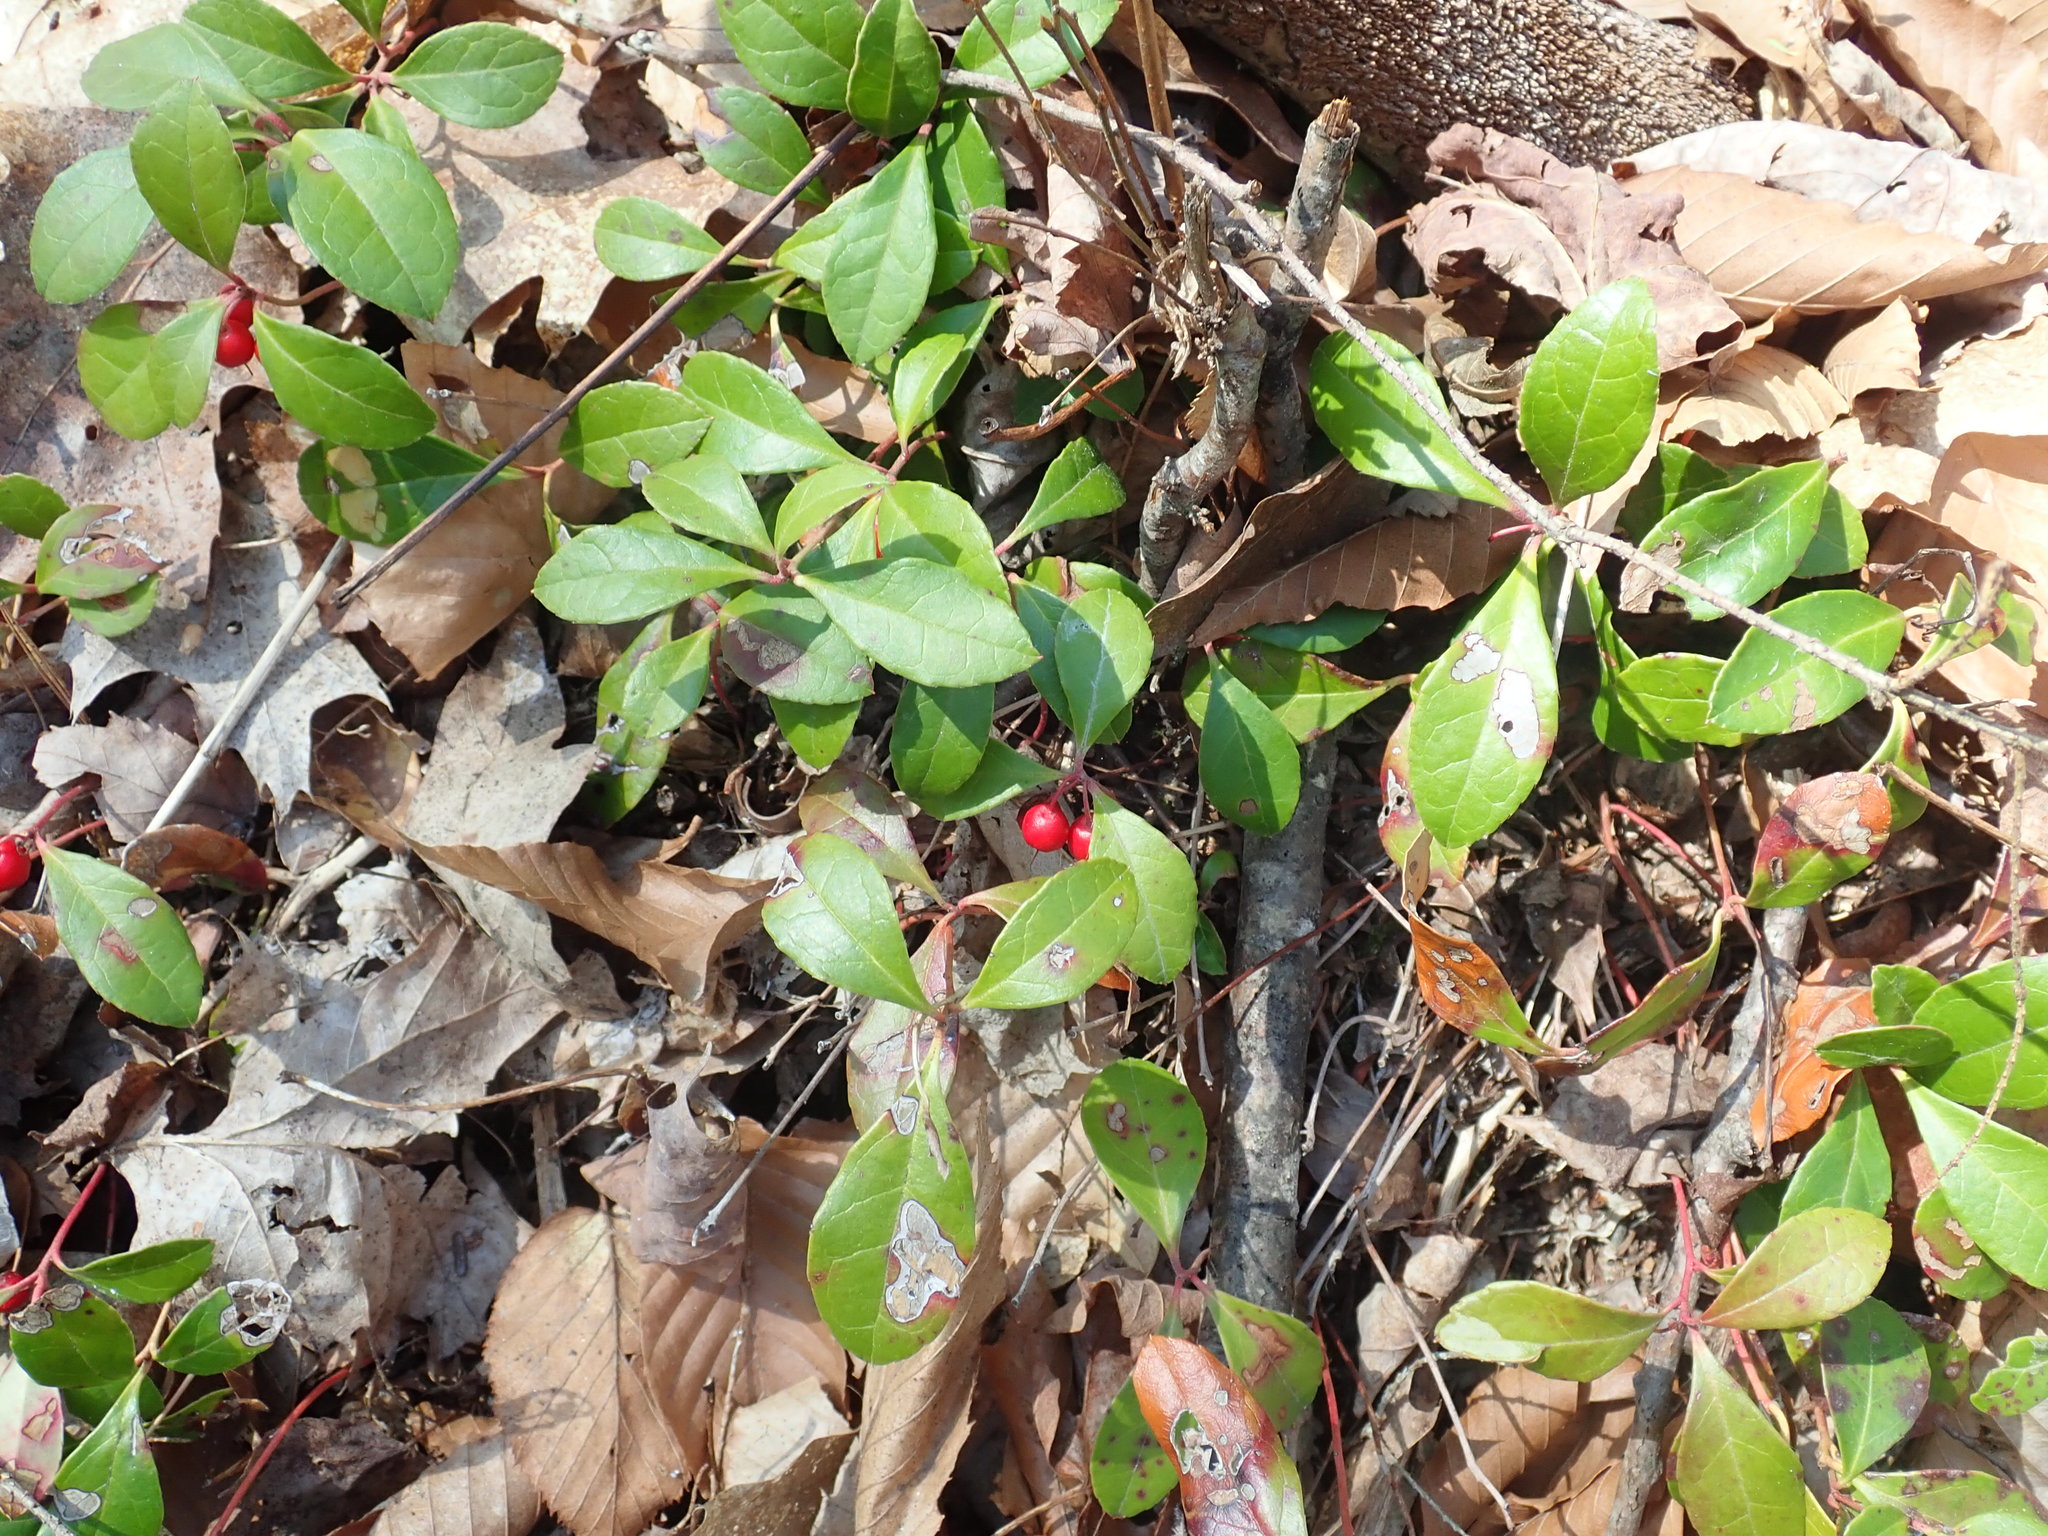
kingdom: Plantae
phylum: Tracheophyta
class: Magnoliopsida
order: Ericales
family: Ericaceae
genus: Gaultheria
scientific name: Gaultheria procumbens
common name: Checkerberry
